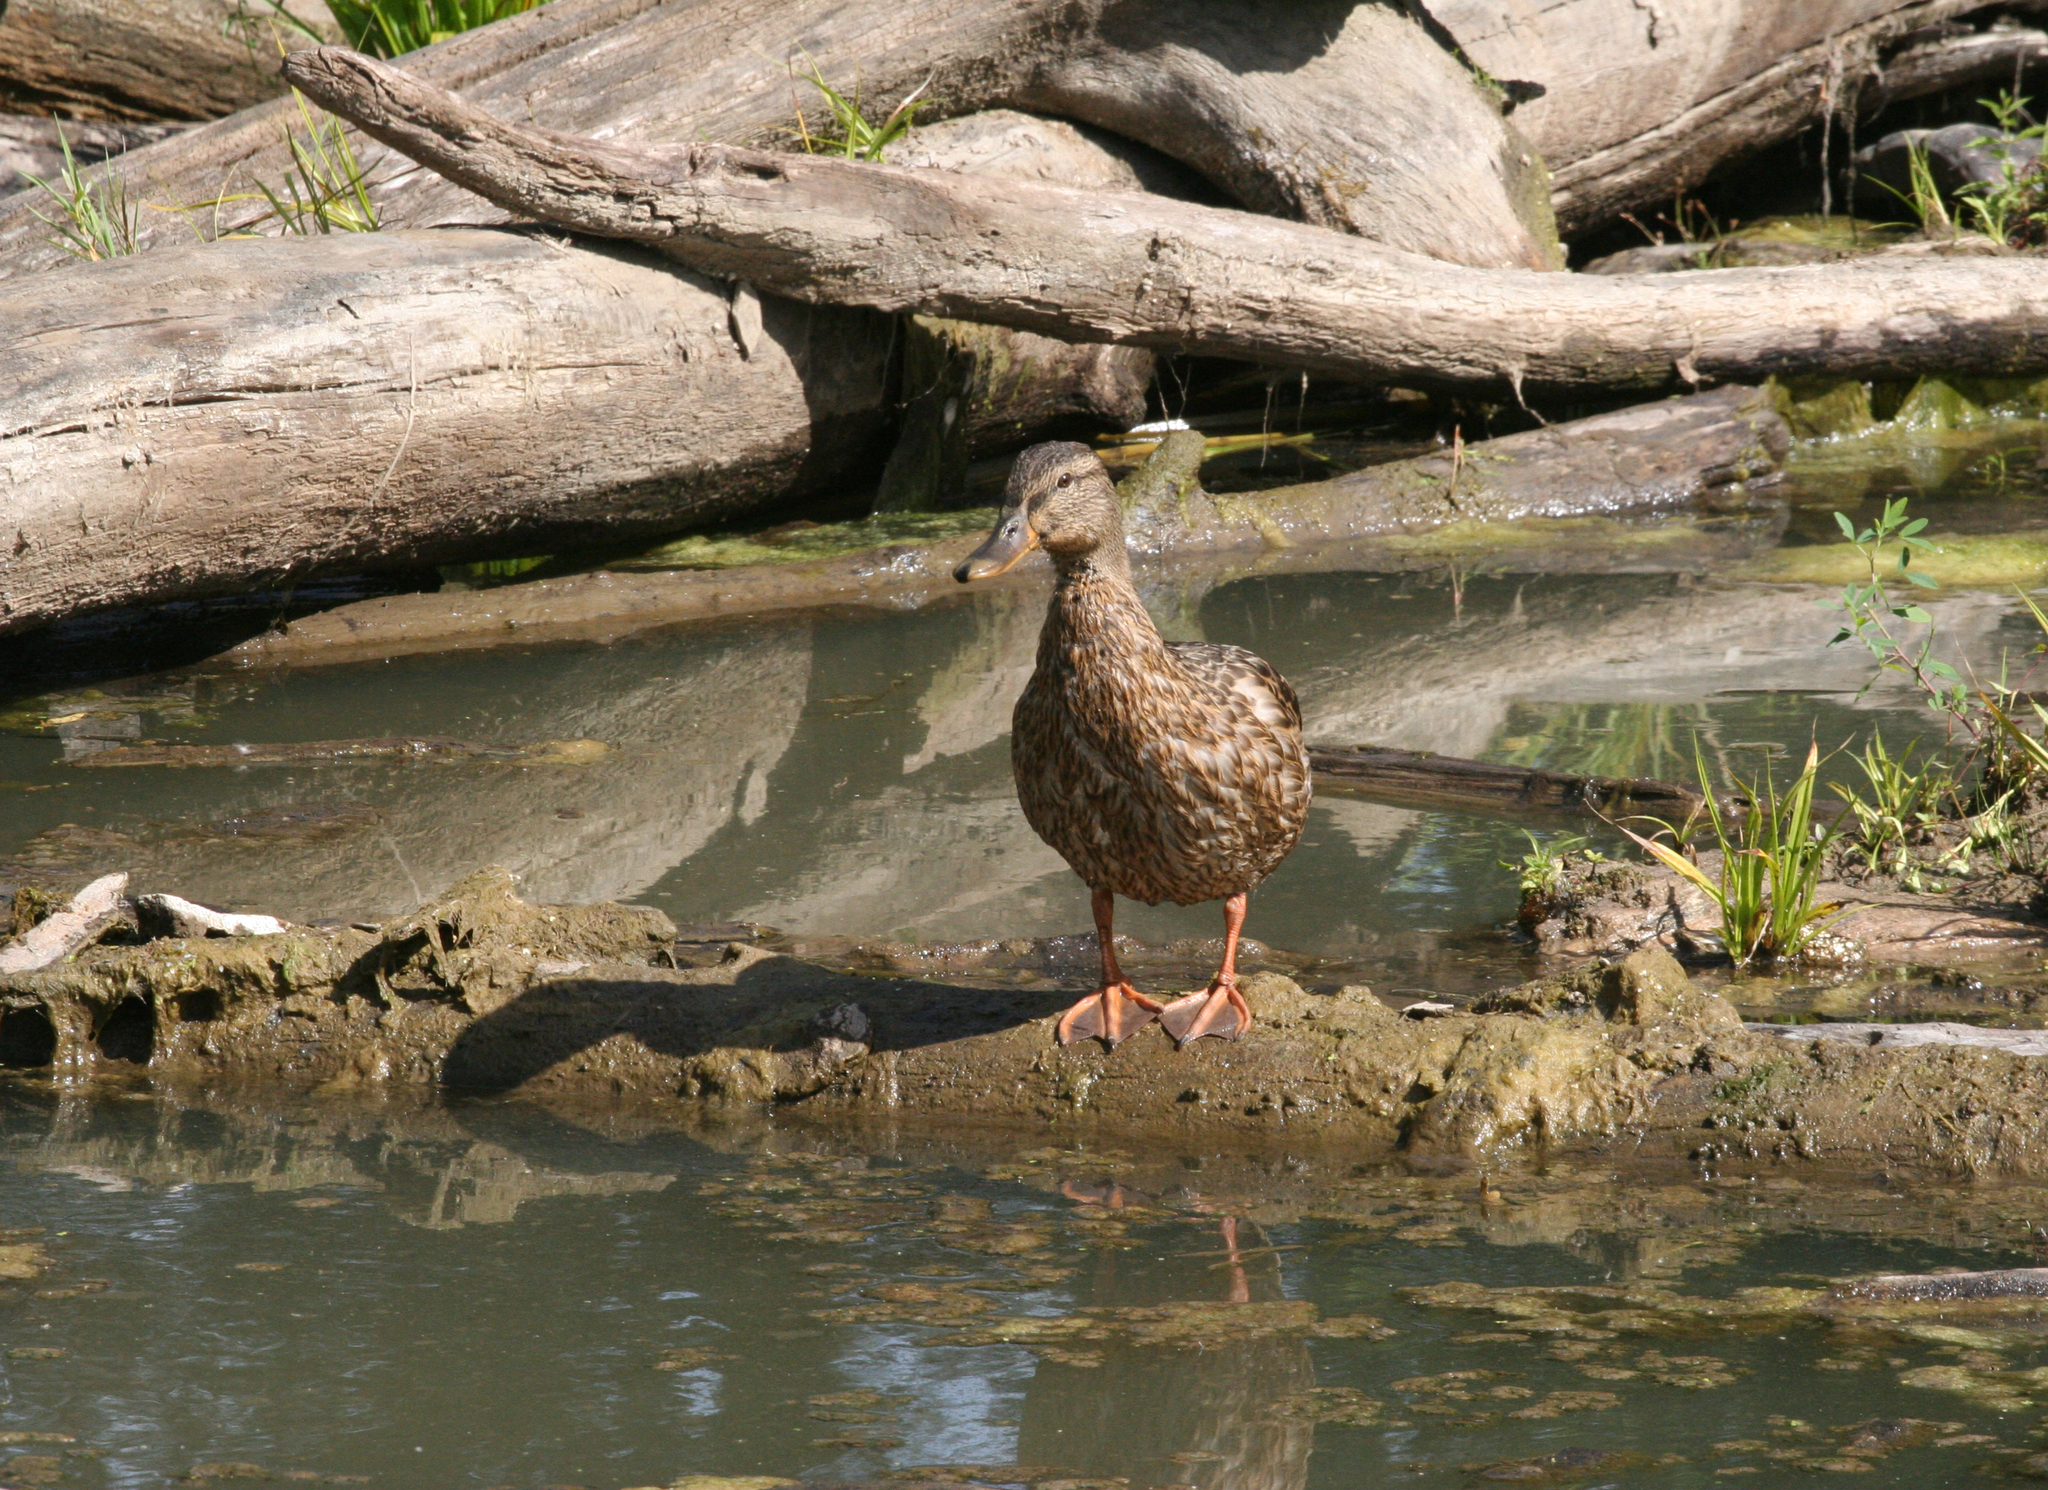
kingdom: Animalia
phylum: Chordata
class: Aves
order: Anseriformes
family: Anatidae
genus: Anas
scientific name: Anas platyrhynchos
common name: Mallard
